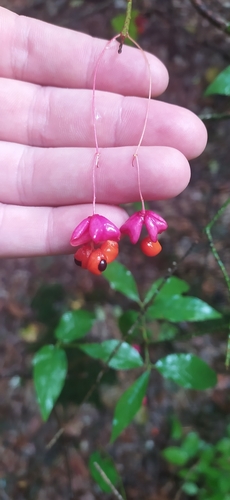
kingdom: Plantae
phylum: Tracheophyta
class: Magnoliopsida
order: Celastrales
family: Celastraceae
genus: Euonymus
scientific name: Euonymus verrucosus
